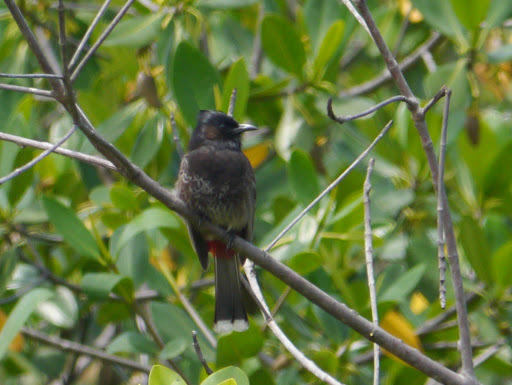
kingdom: Animalia
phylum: Chordata
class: Aves
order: Passeriformes
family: Pycnonotidae
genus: Pycnonotus
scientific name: Pycnonotus cafer
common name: Red-vented bulbul
